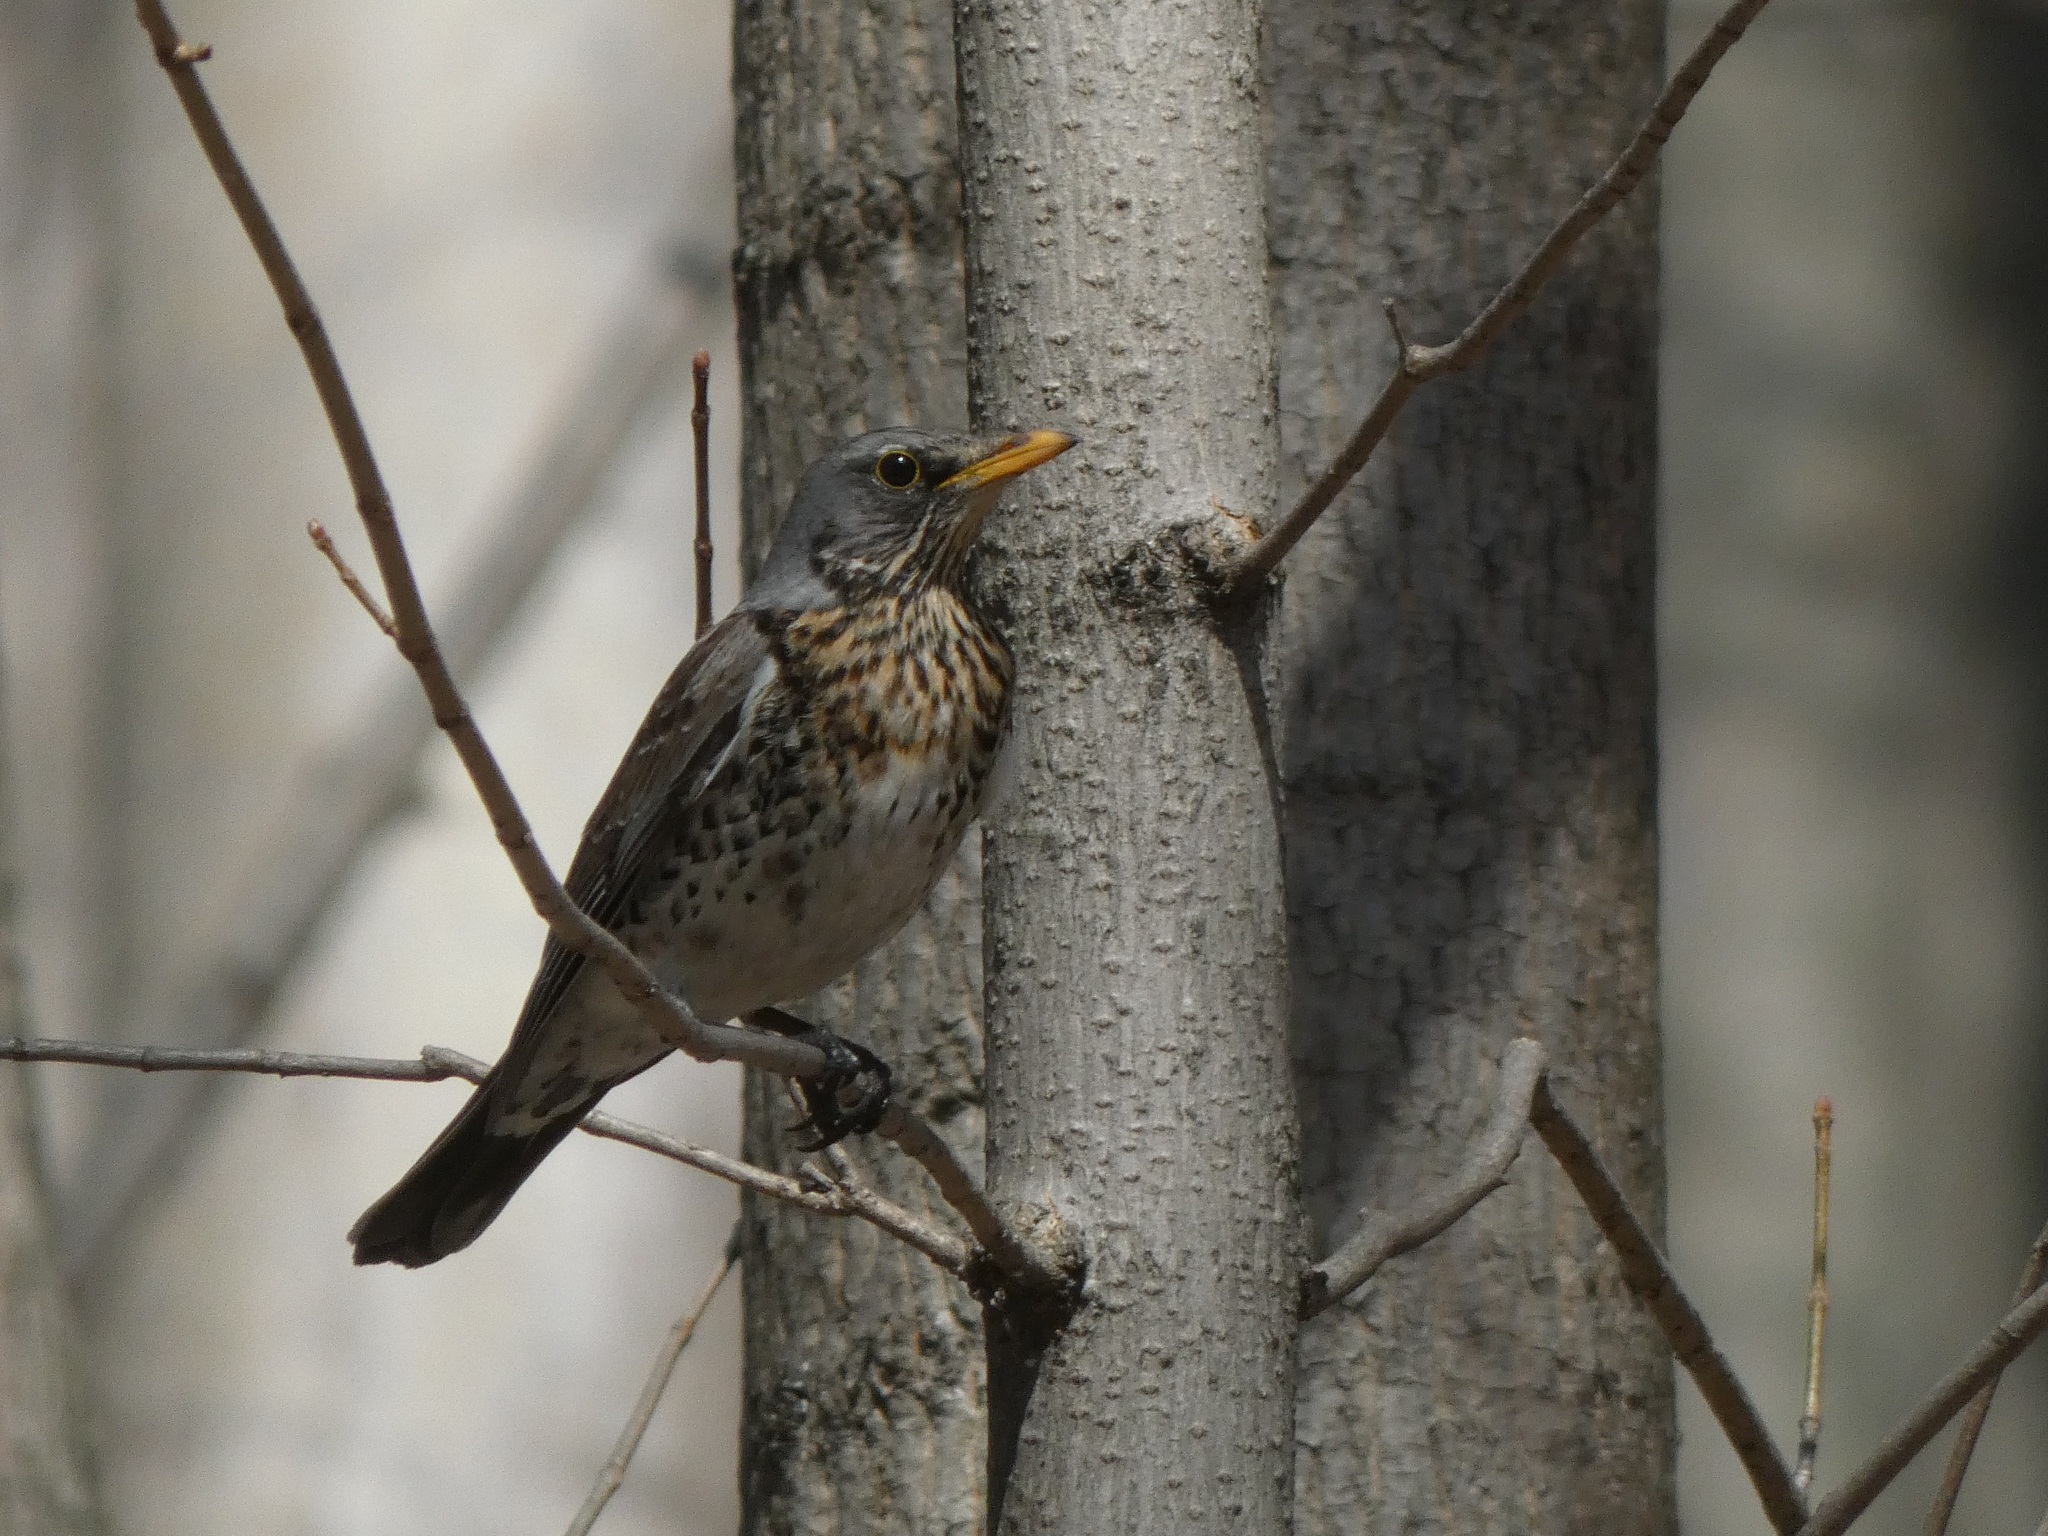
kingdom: Animalia
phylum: Chordata
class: Aves
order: Passeriformes
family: Turdidae
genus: Turdus
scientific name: Turdus pilaris
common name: Fieldfare
